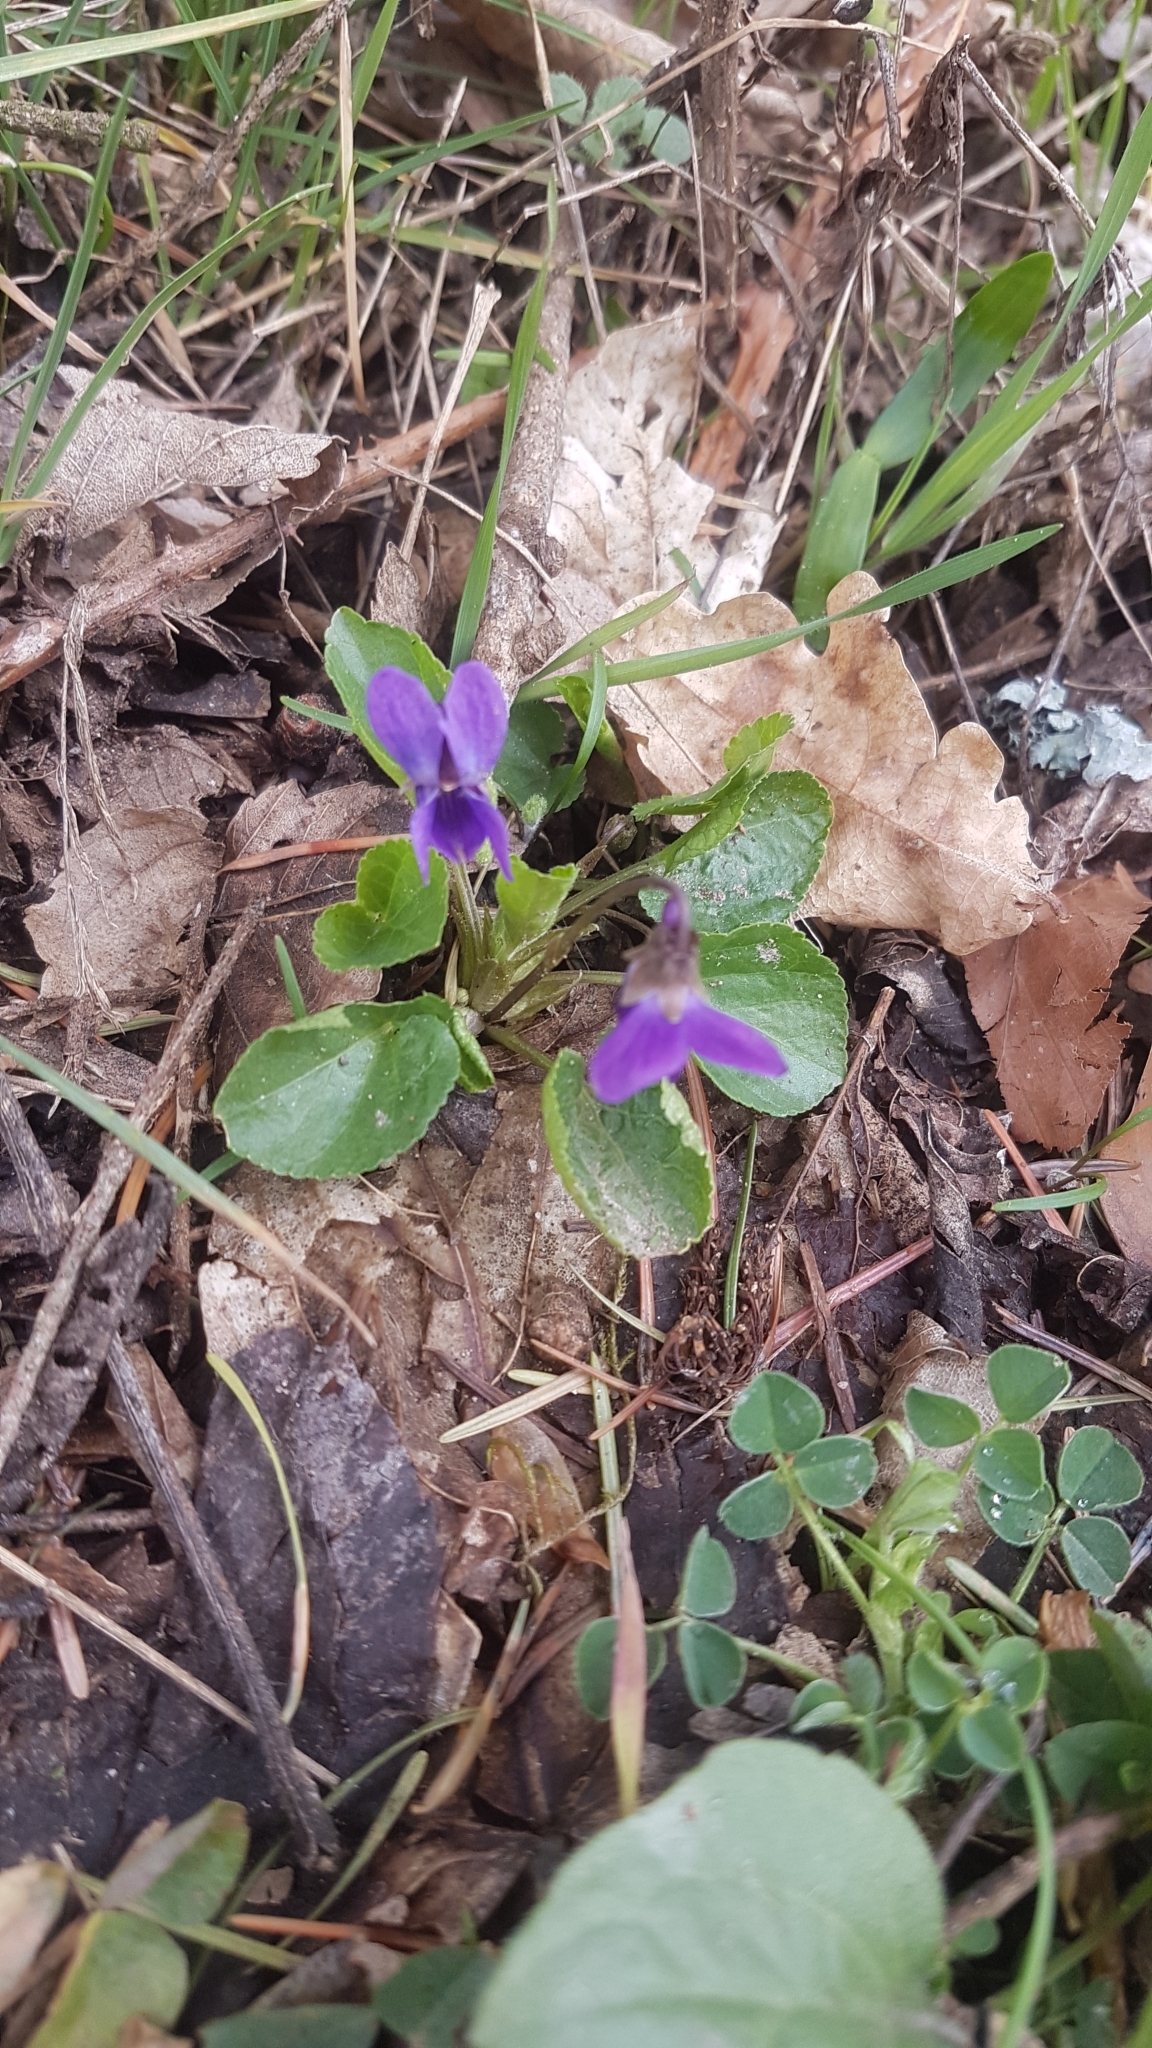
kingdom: Plantae
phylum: Tracheophyta
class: Magnoliopsida
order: Malpighiales
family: Violaceae
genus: Viola
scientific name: Viola odorata
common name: Sweet violet
